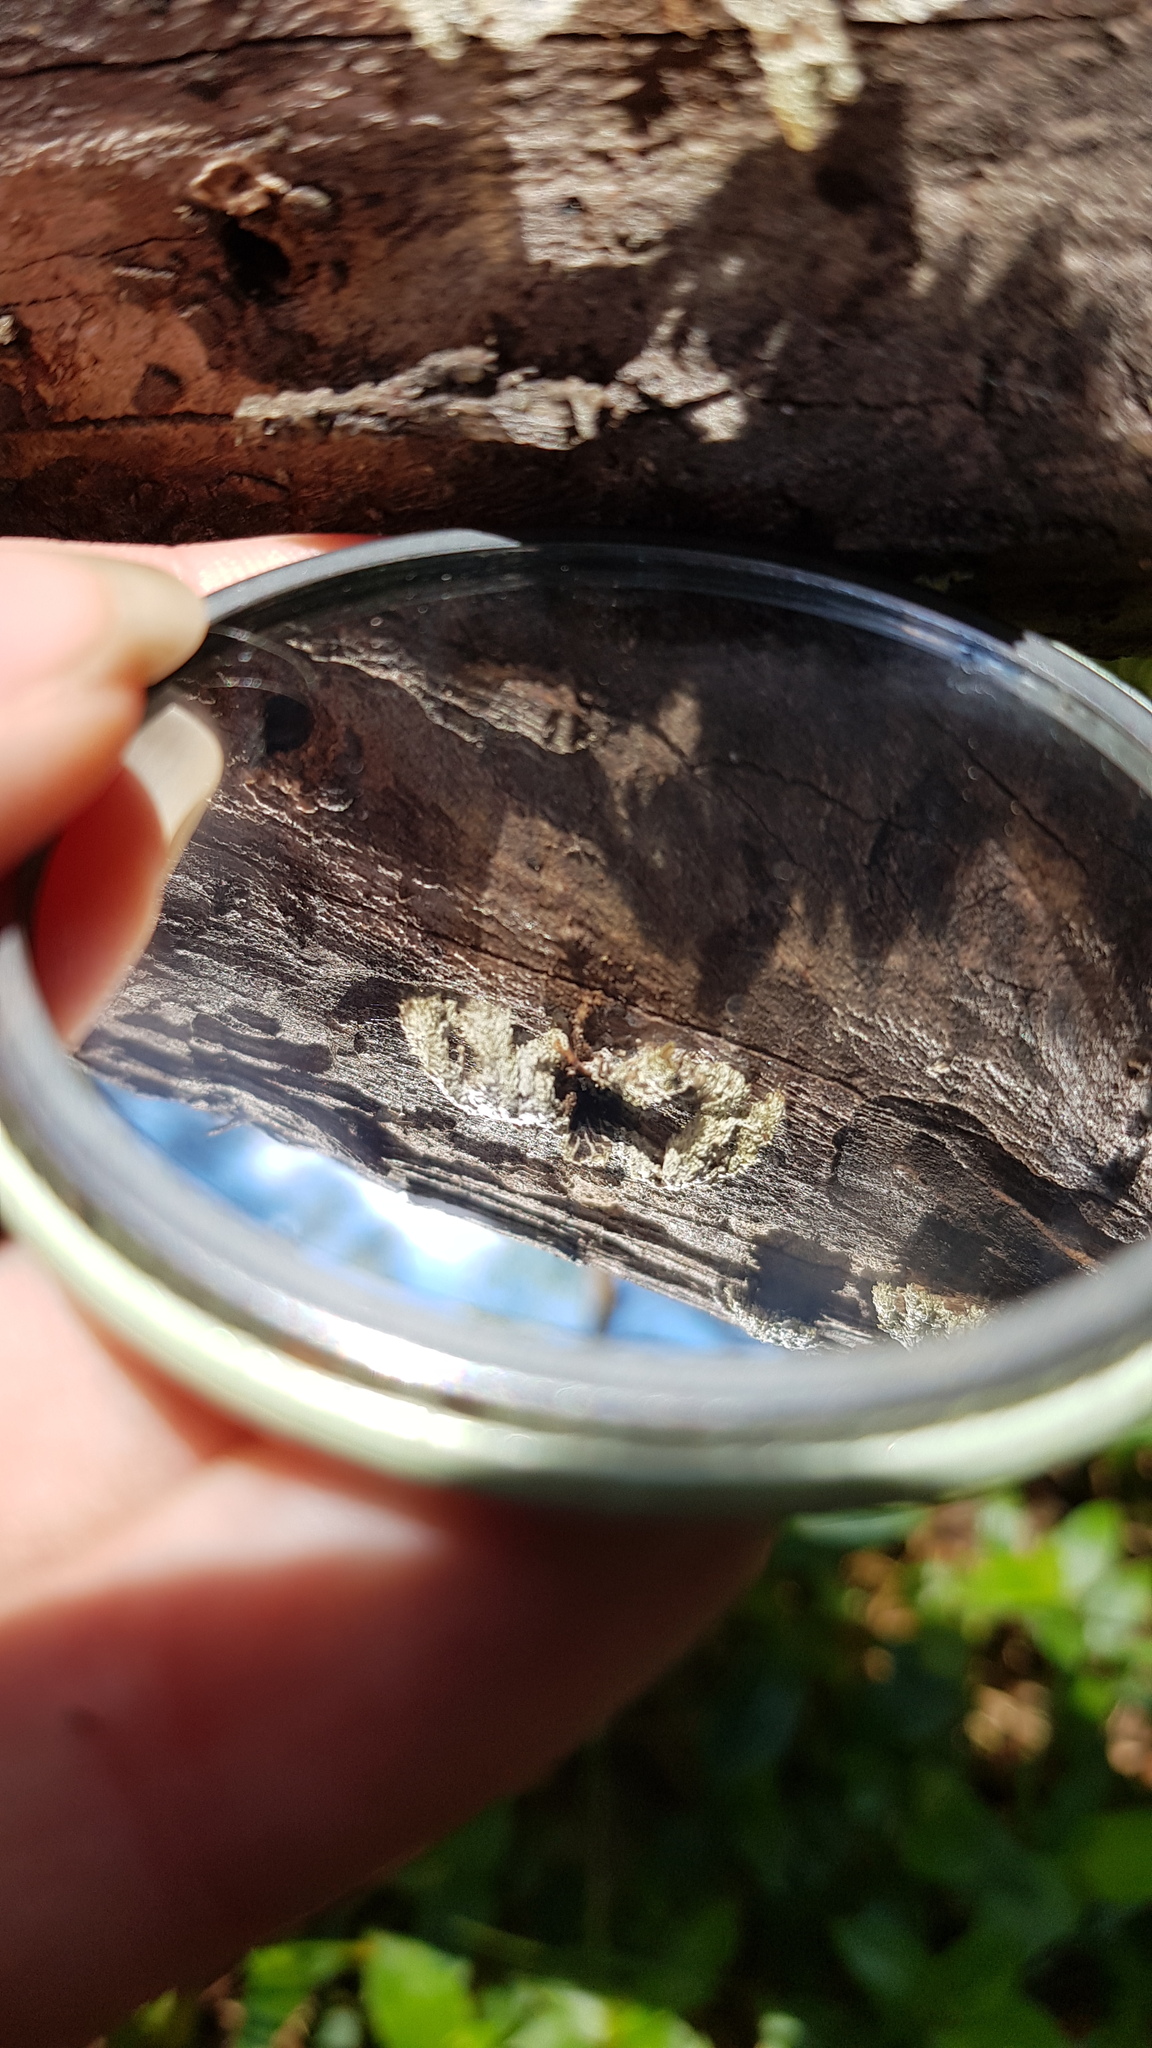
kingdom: Fungi
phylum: Basidiomycota
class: Agaricomycetes
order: Agaricales
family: Schizophyllaceae
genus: Schizophyllum
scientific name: Schizophyllum commune
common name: Common porecrust
